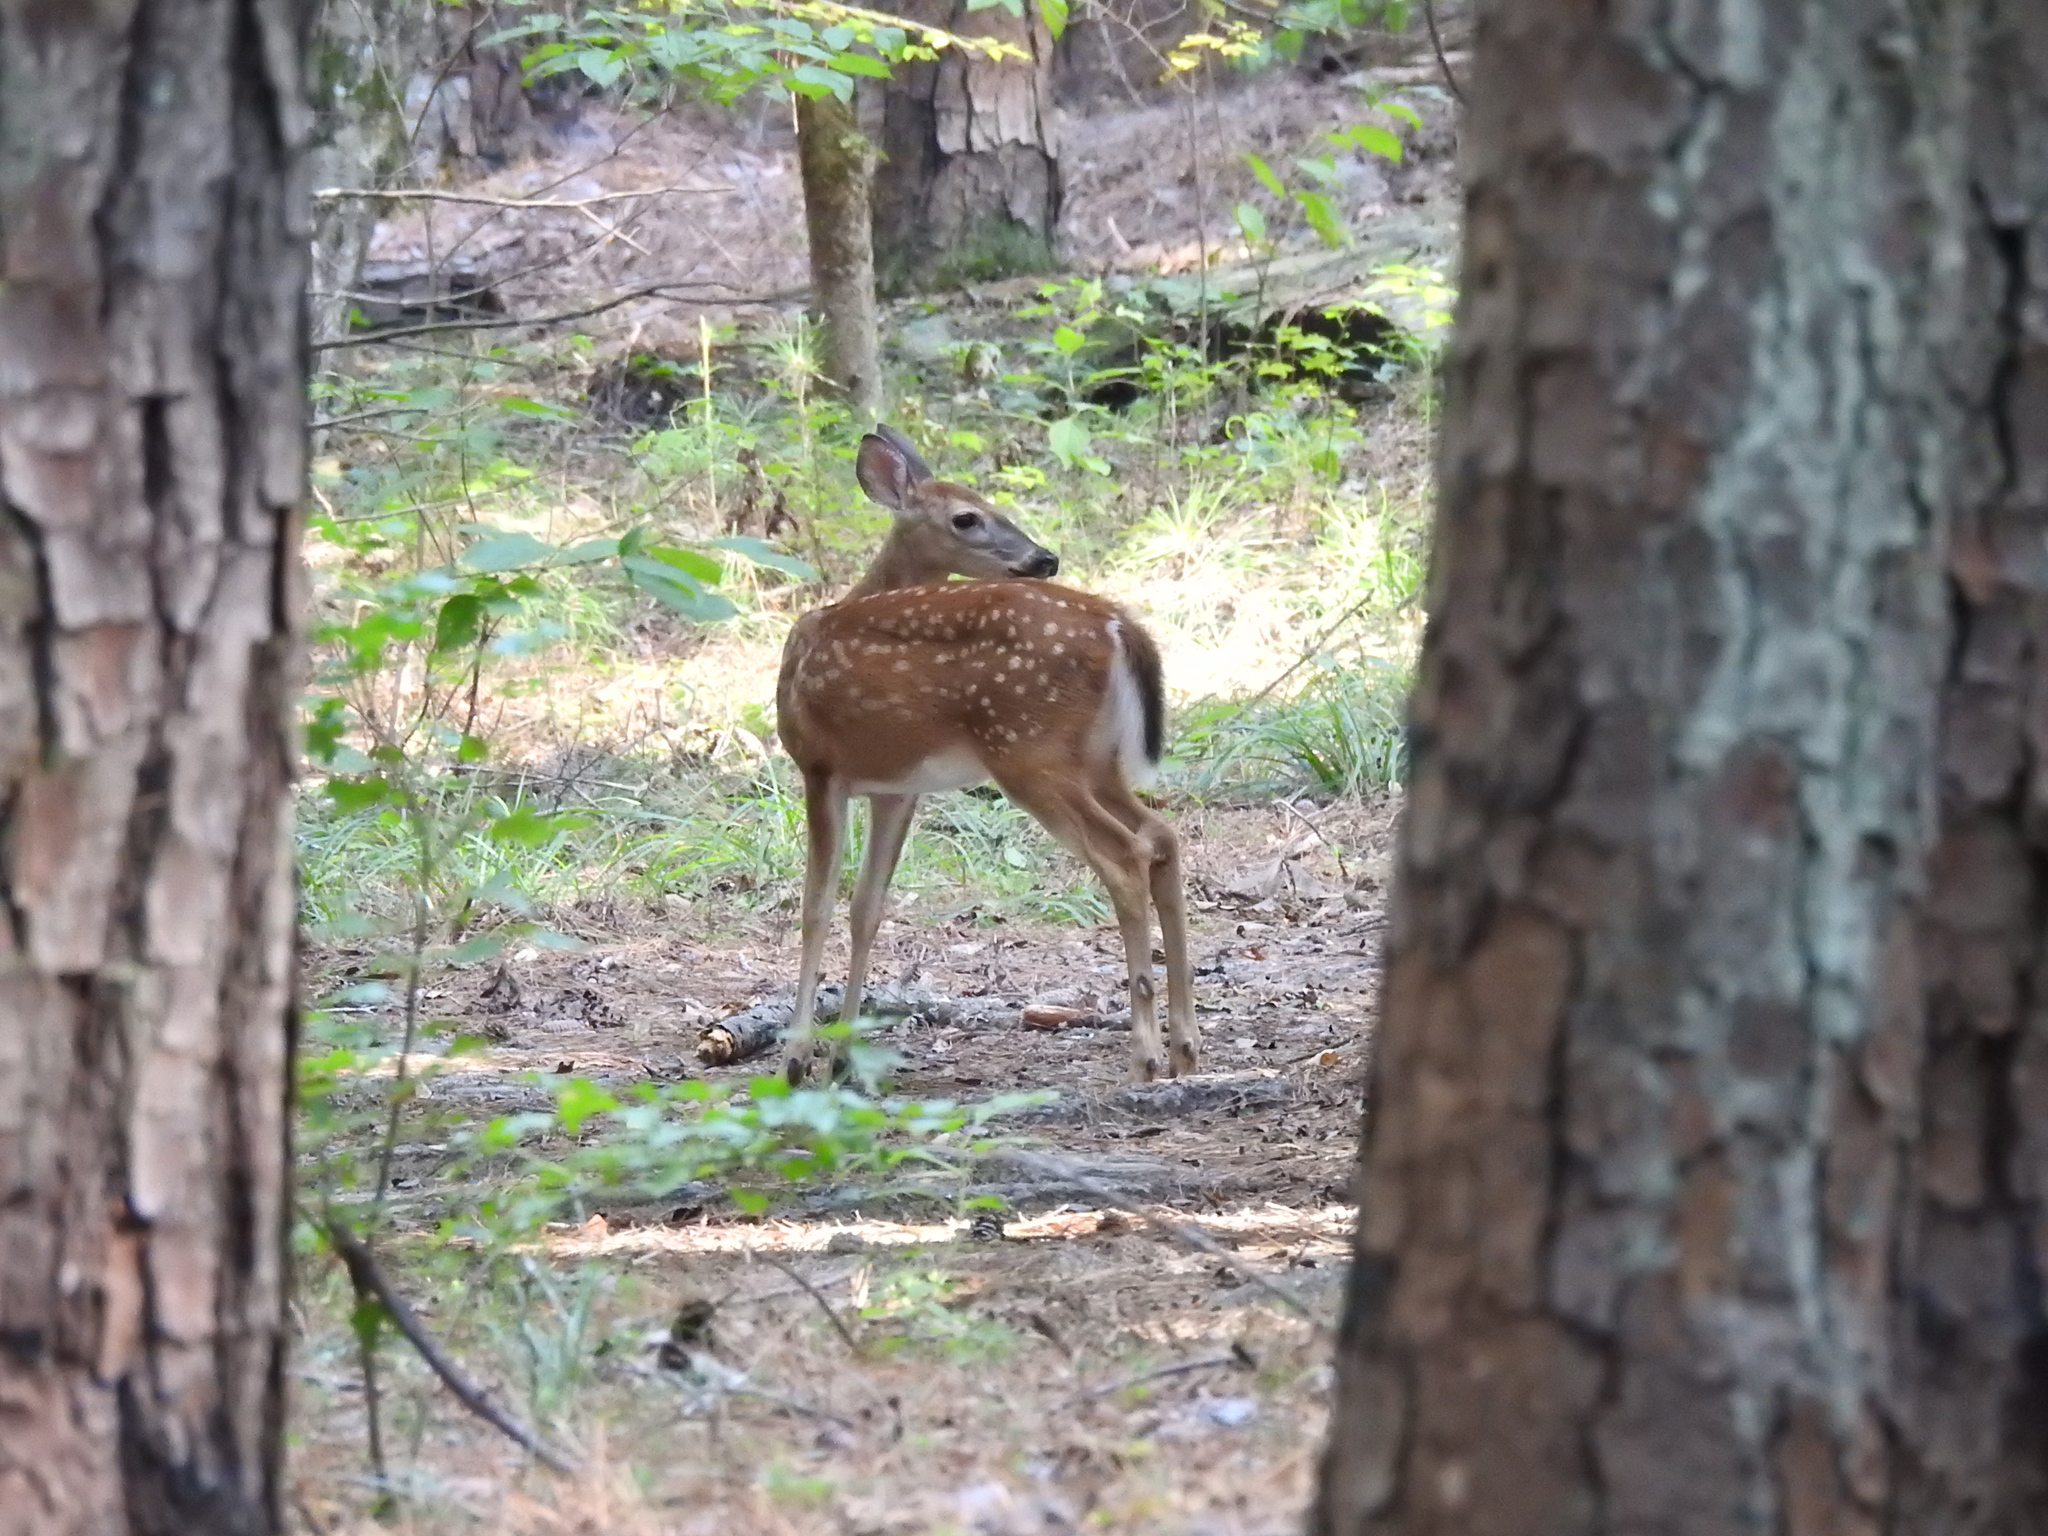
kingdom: Animalia
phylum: Chordata
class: Mammalia
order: Artiodactyla
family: Cervidae
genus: Odocoileus
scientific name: Odocoileus virginianus
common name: White-tailed deer
